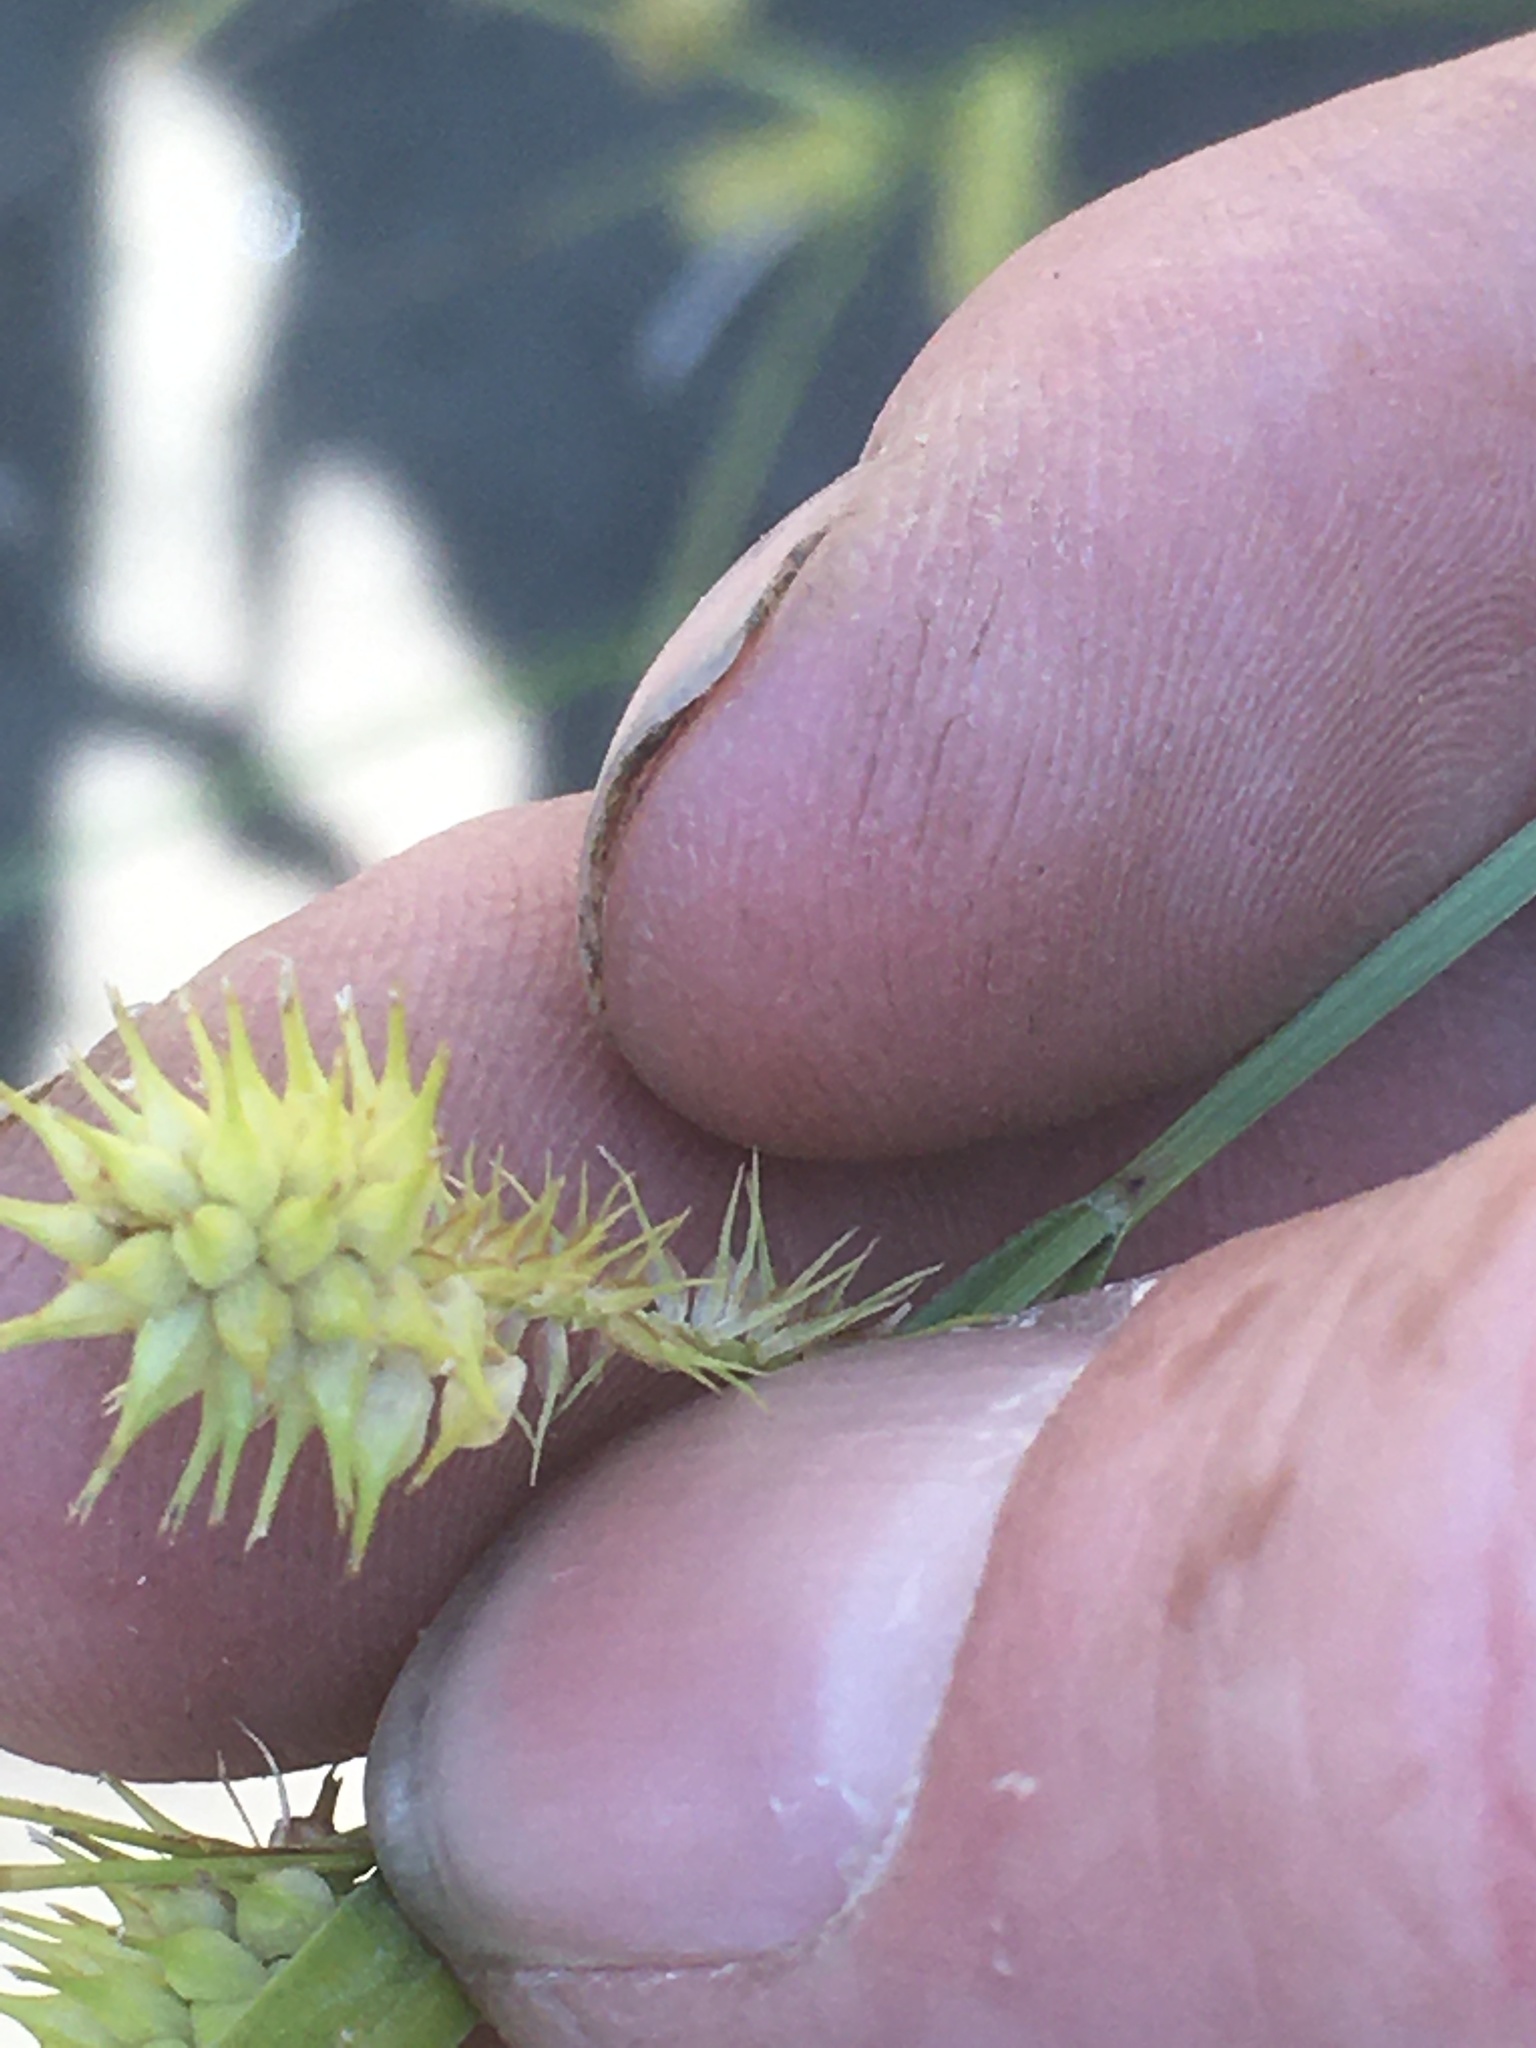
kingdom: Plantae
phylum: Tracheophyta
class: Liliopsida
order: Poales
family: Cyperaceae
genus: Carex
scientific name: Carex hystericina
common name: Bottlebrush sedge
